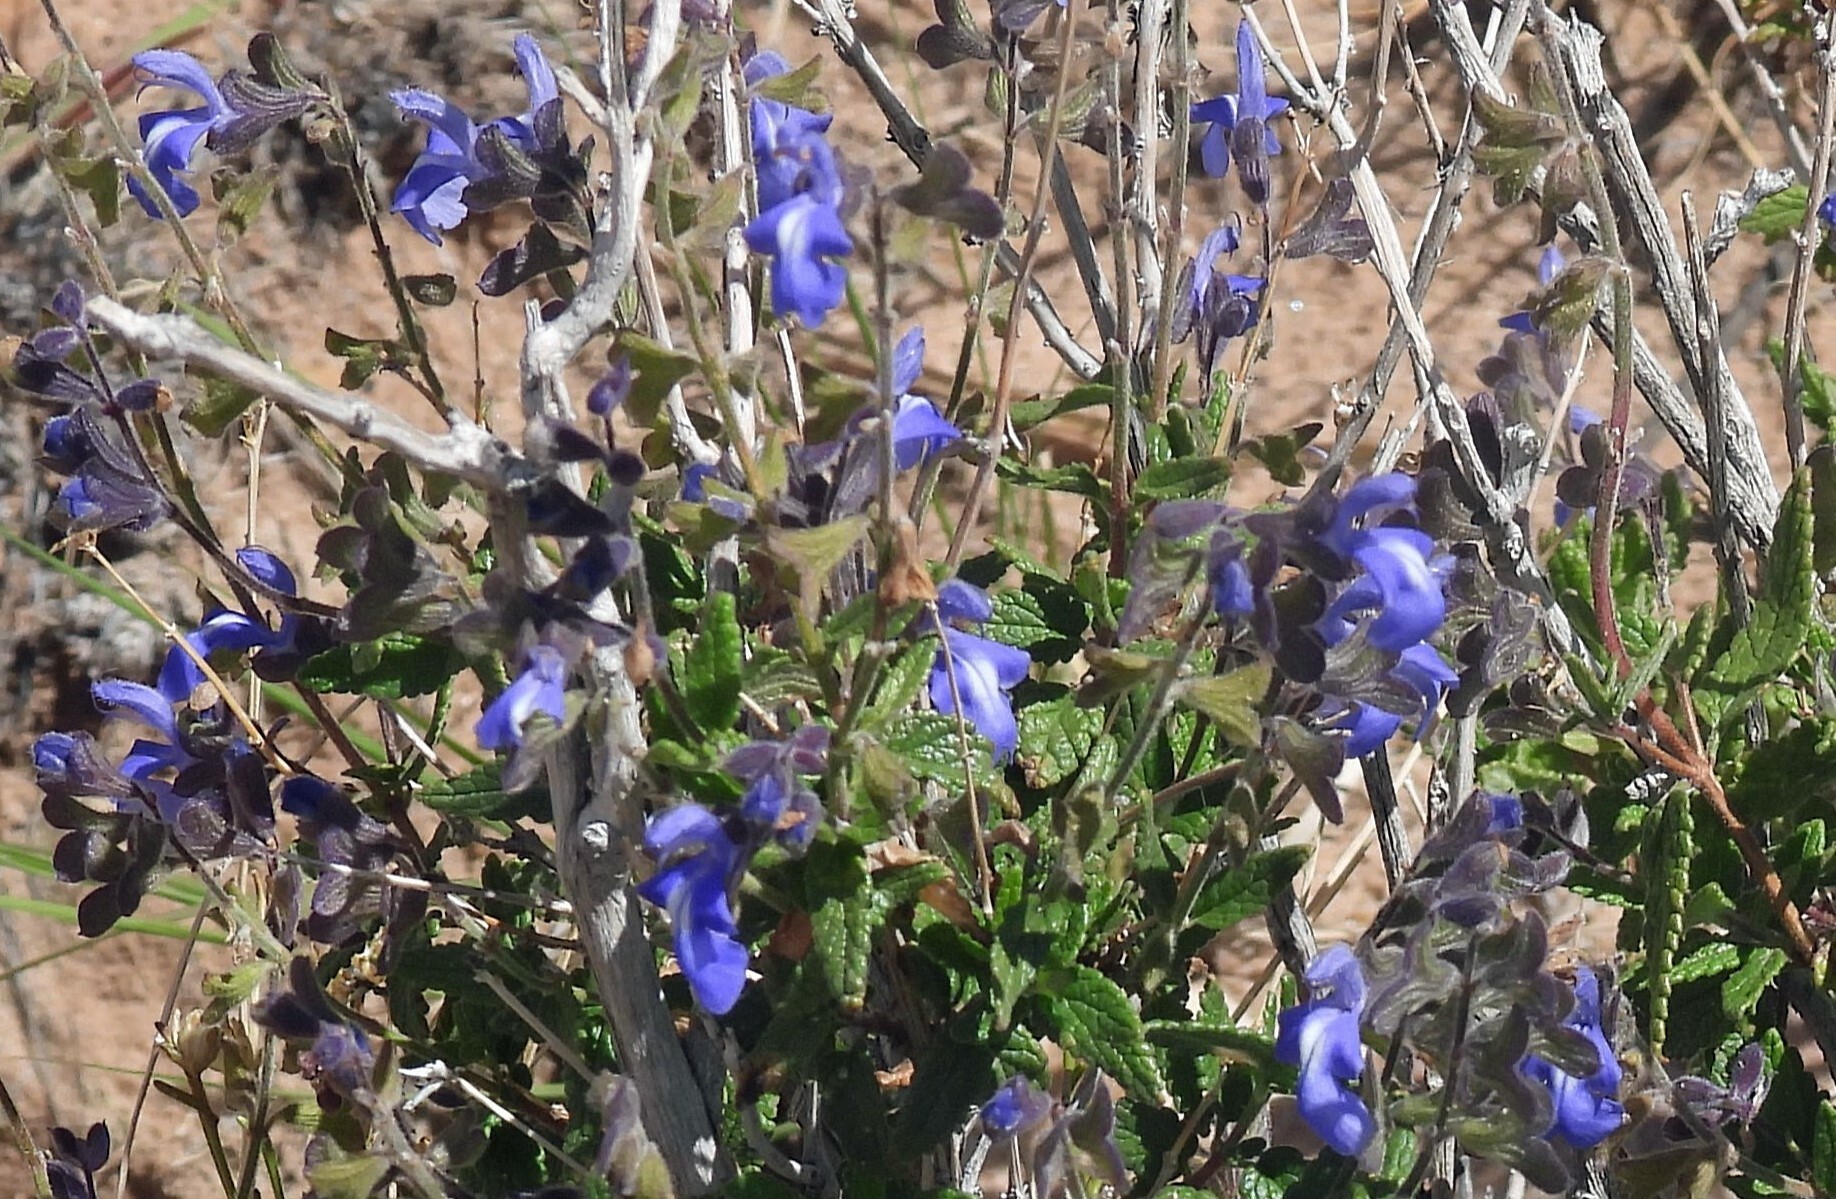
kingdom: Plantae
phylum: Tracheophyta
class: Magnoliopsida
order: Lamiales
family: Lamiaceae
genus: Salvia
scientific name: Salvia cuspidata
